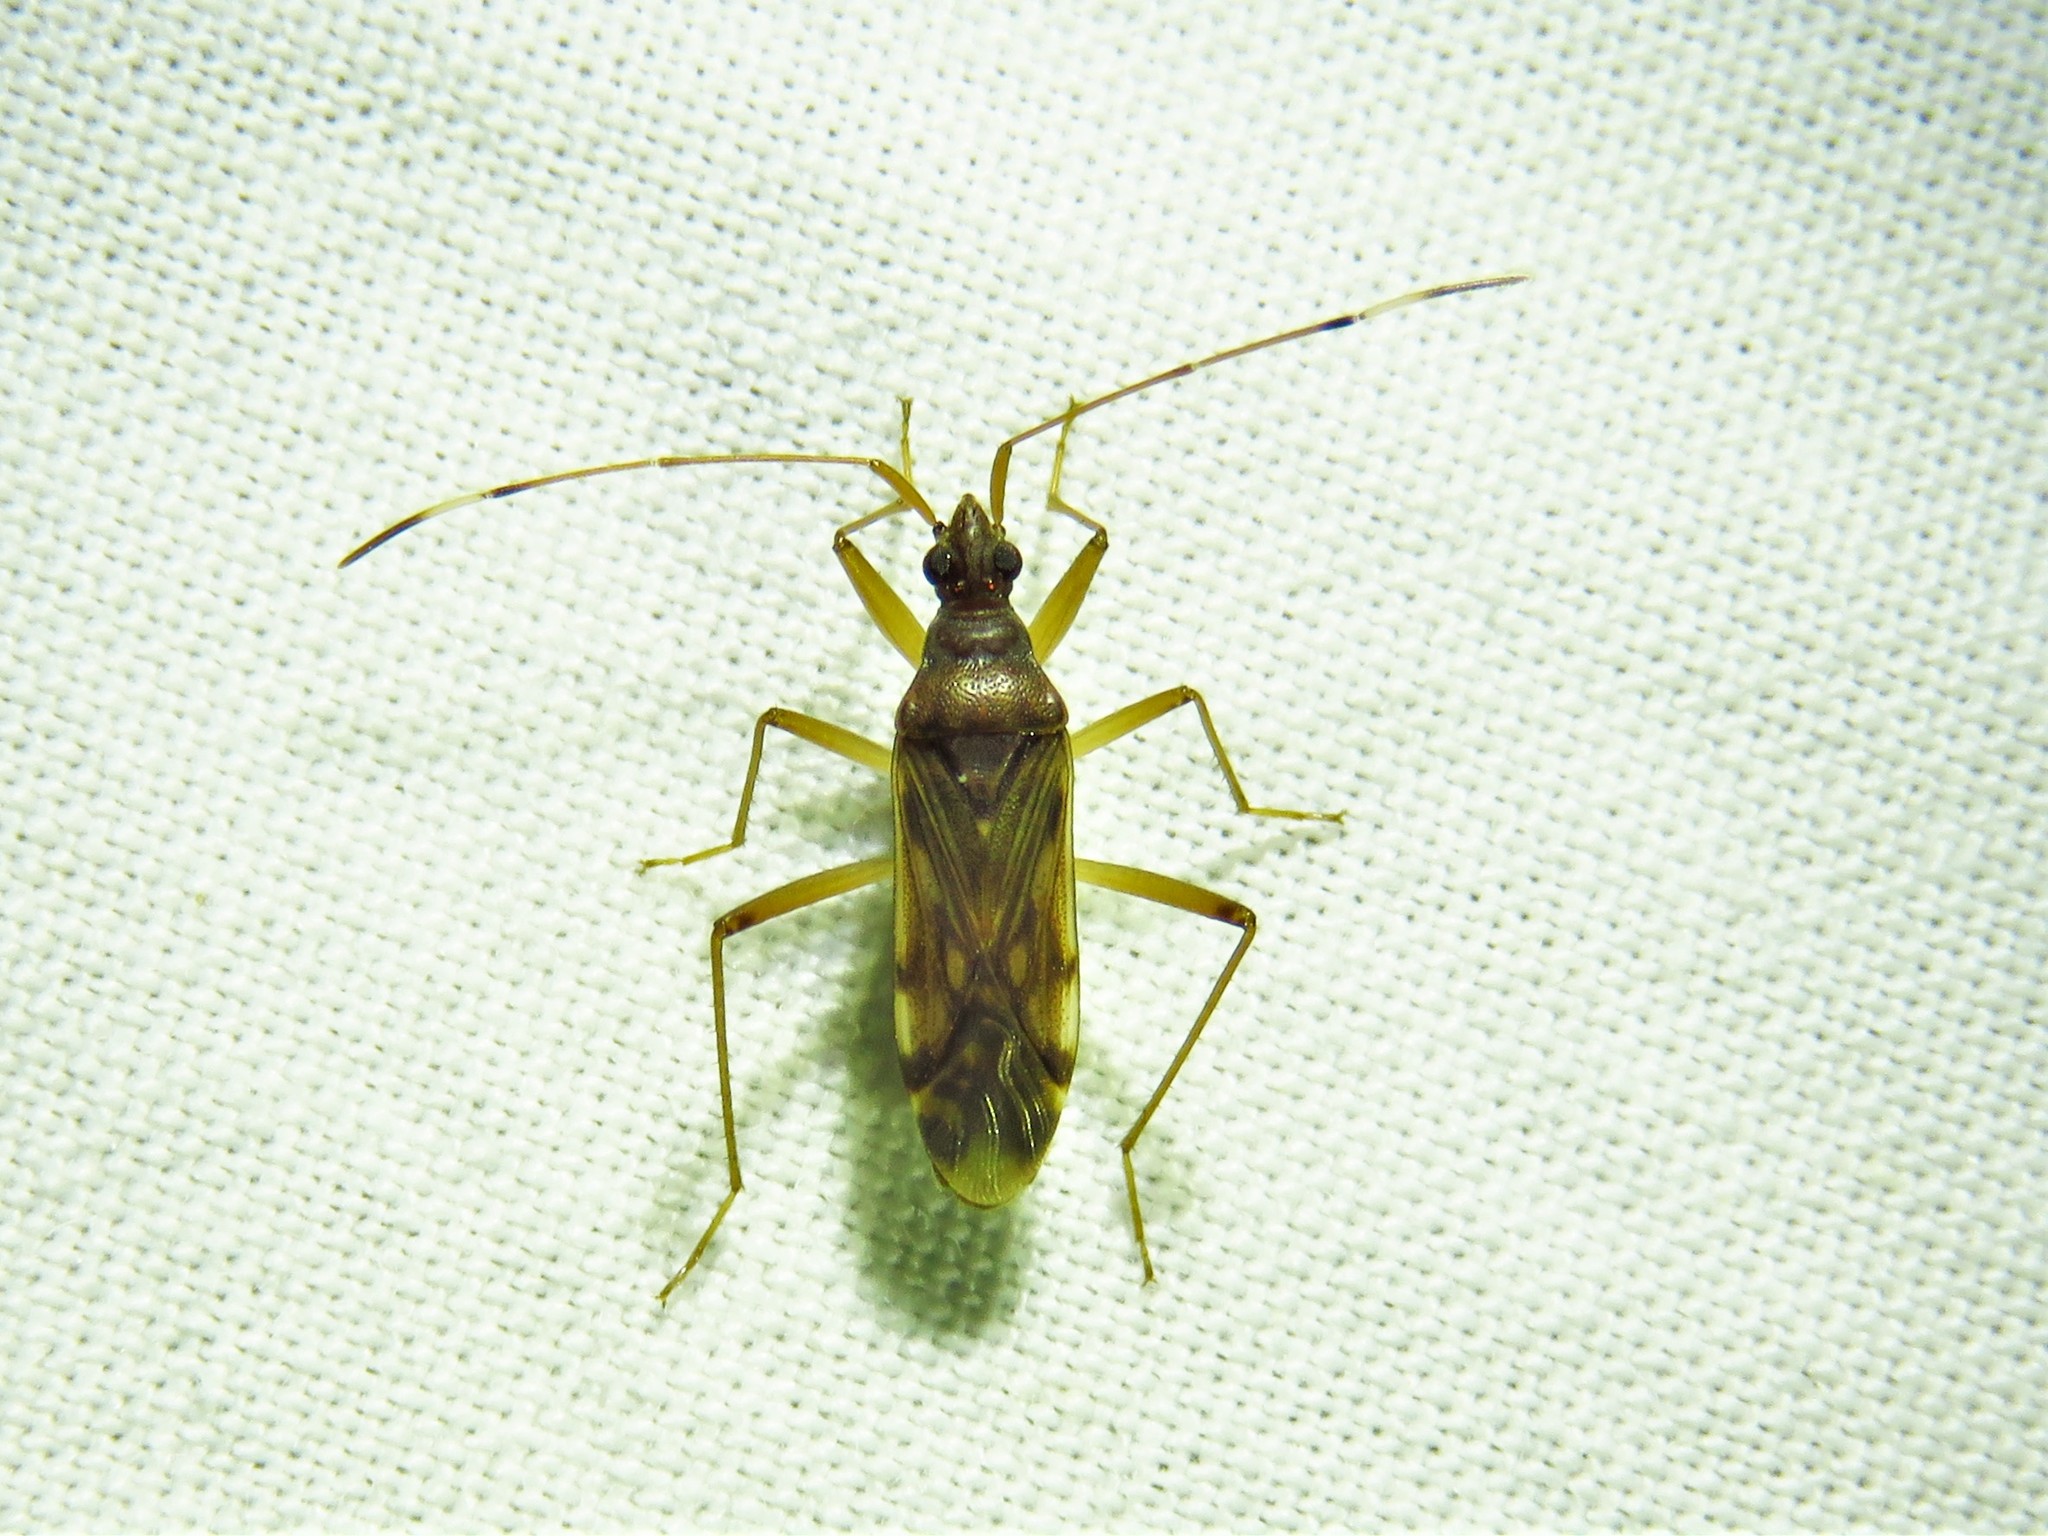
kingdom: Animalia
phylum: Arthropoda
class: Insecta
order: Hemiptera
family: Rhyparochromidae
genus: Ozophora
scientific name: Ozophora depicturata
